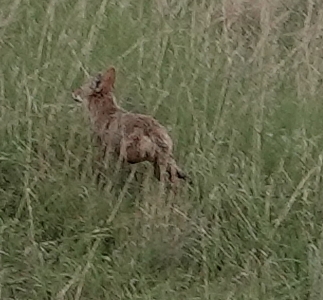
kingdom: Animalia
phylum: Chordata
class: Mammalia
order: Carnivora
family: Canidae
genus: Canis
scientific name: Canis latrans
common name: Coyote
